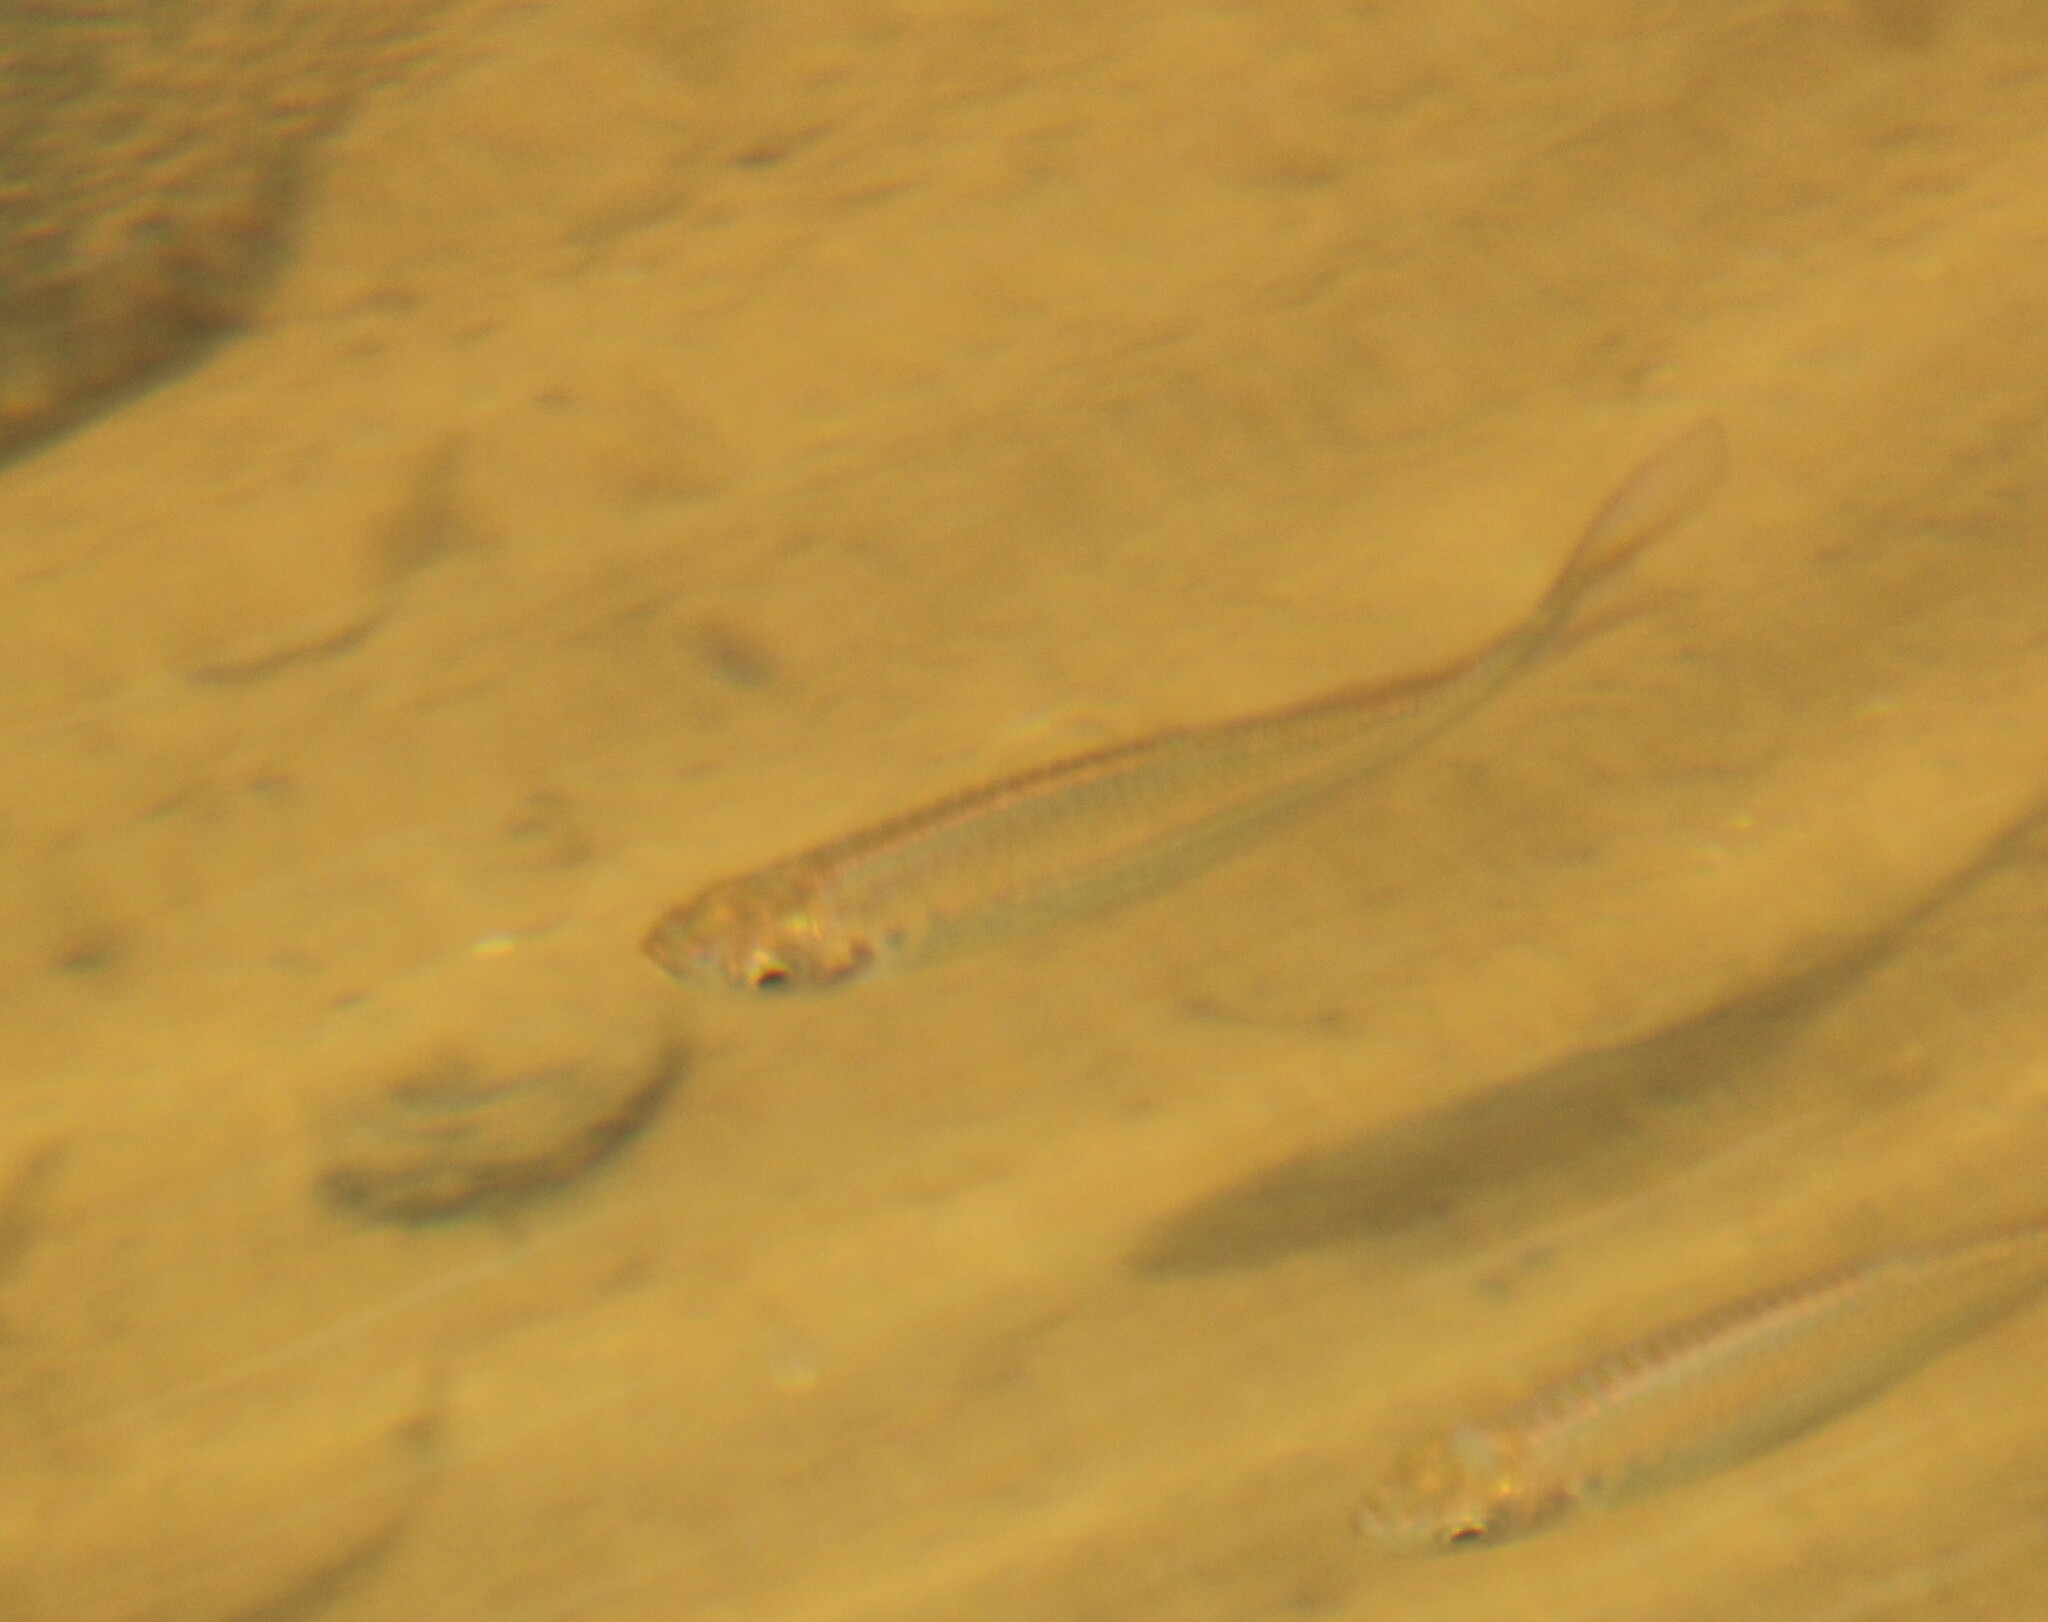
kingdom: Animalia
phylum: Chordata
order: Cypriniformes
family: Cyprinidae
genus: Devario
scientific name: Devario malabaricus
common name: Giant danio
